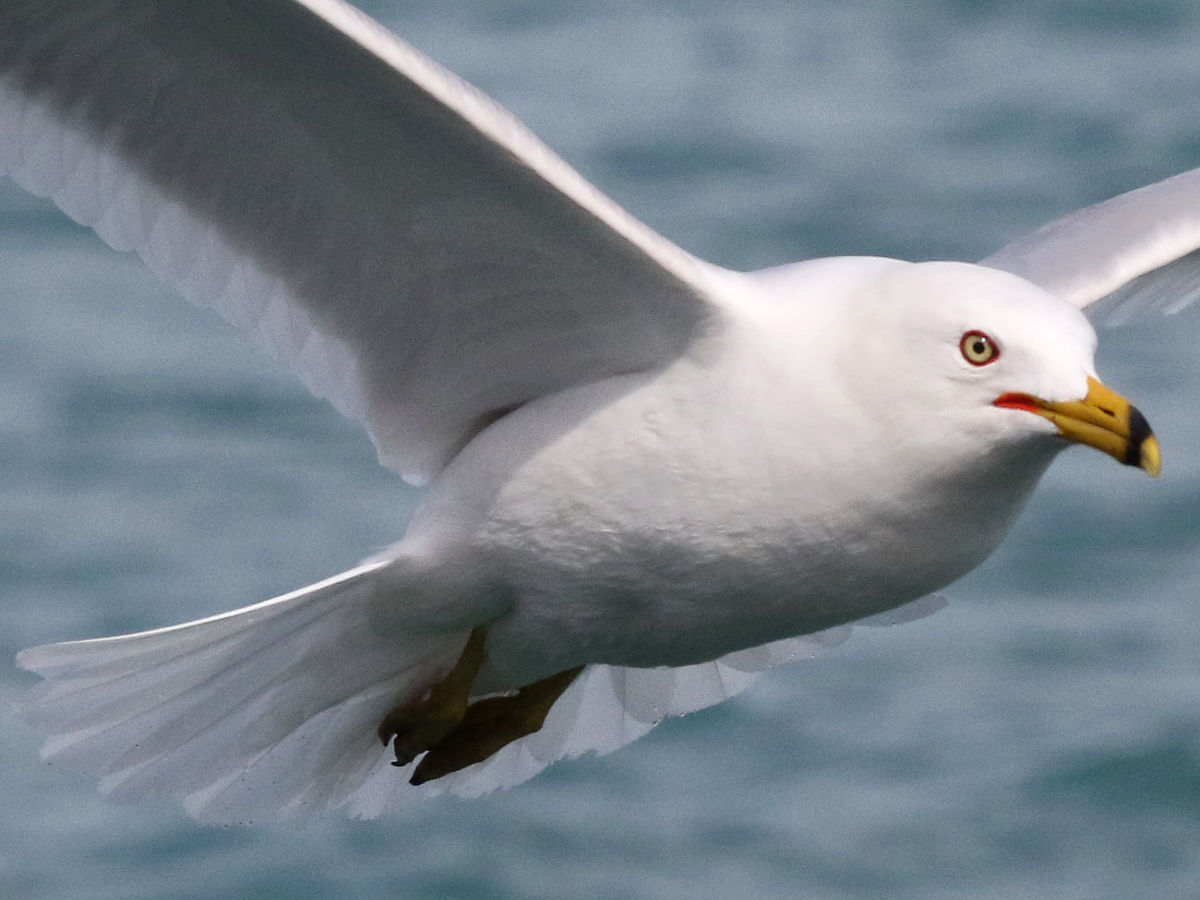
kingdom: Animalia
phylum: Chordata
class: Aves
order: Charadriiformes
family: Laridae
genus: Larus
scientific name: Larus delawarensis
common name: Ring-billed gull
